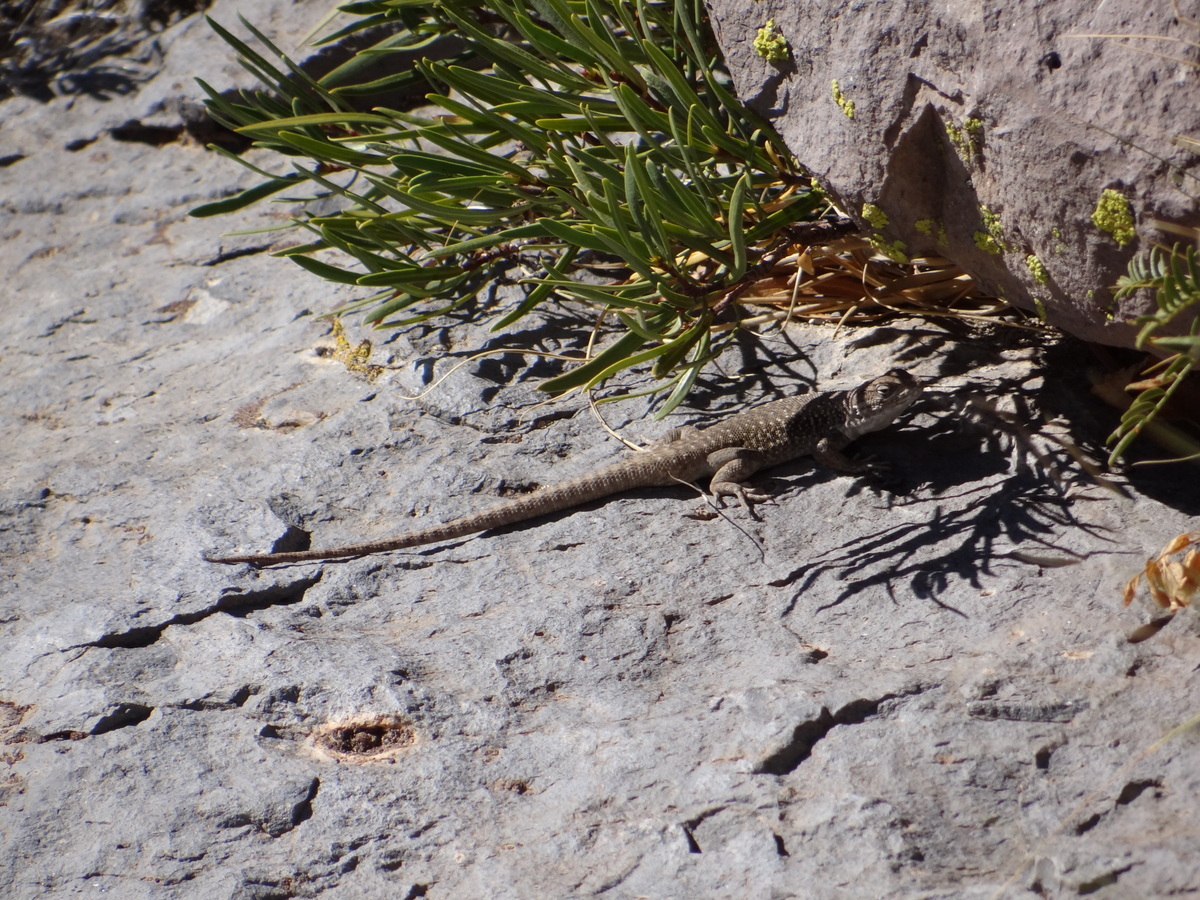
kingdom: Animalia
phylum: Chordata
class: Squamata
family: Liolaemidae
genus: Liolaemus
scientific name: Liolaemus smaug
